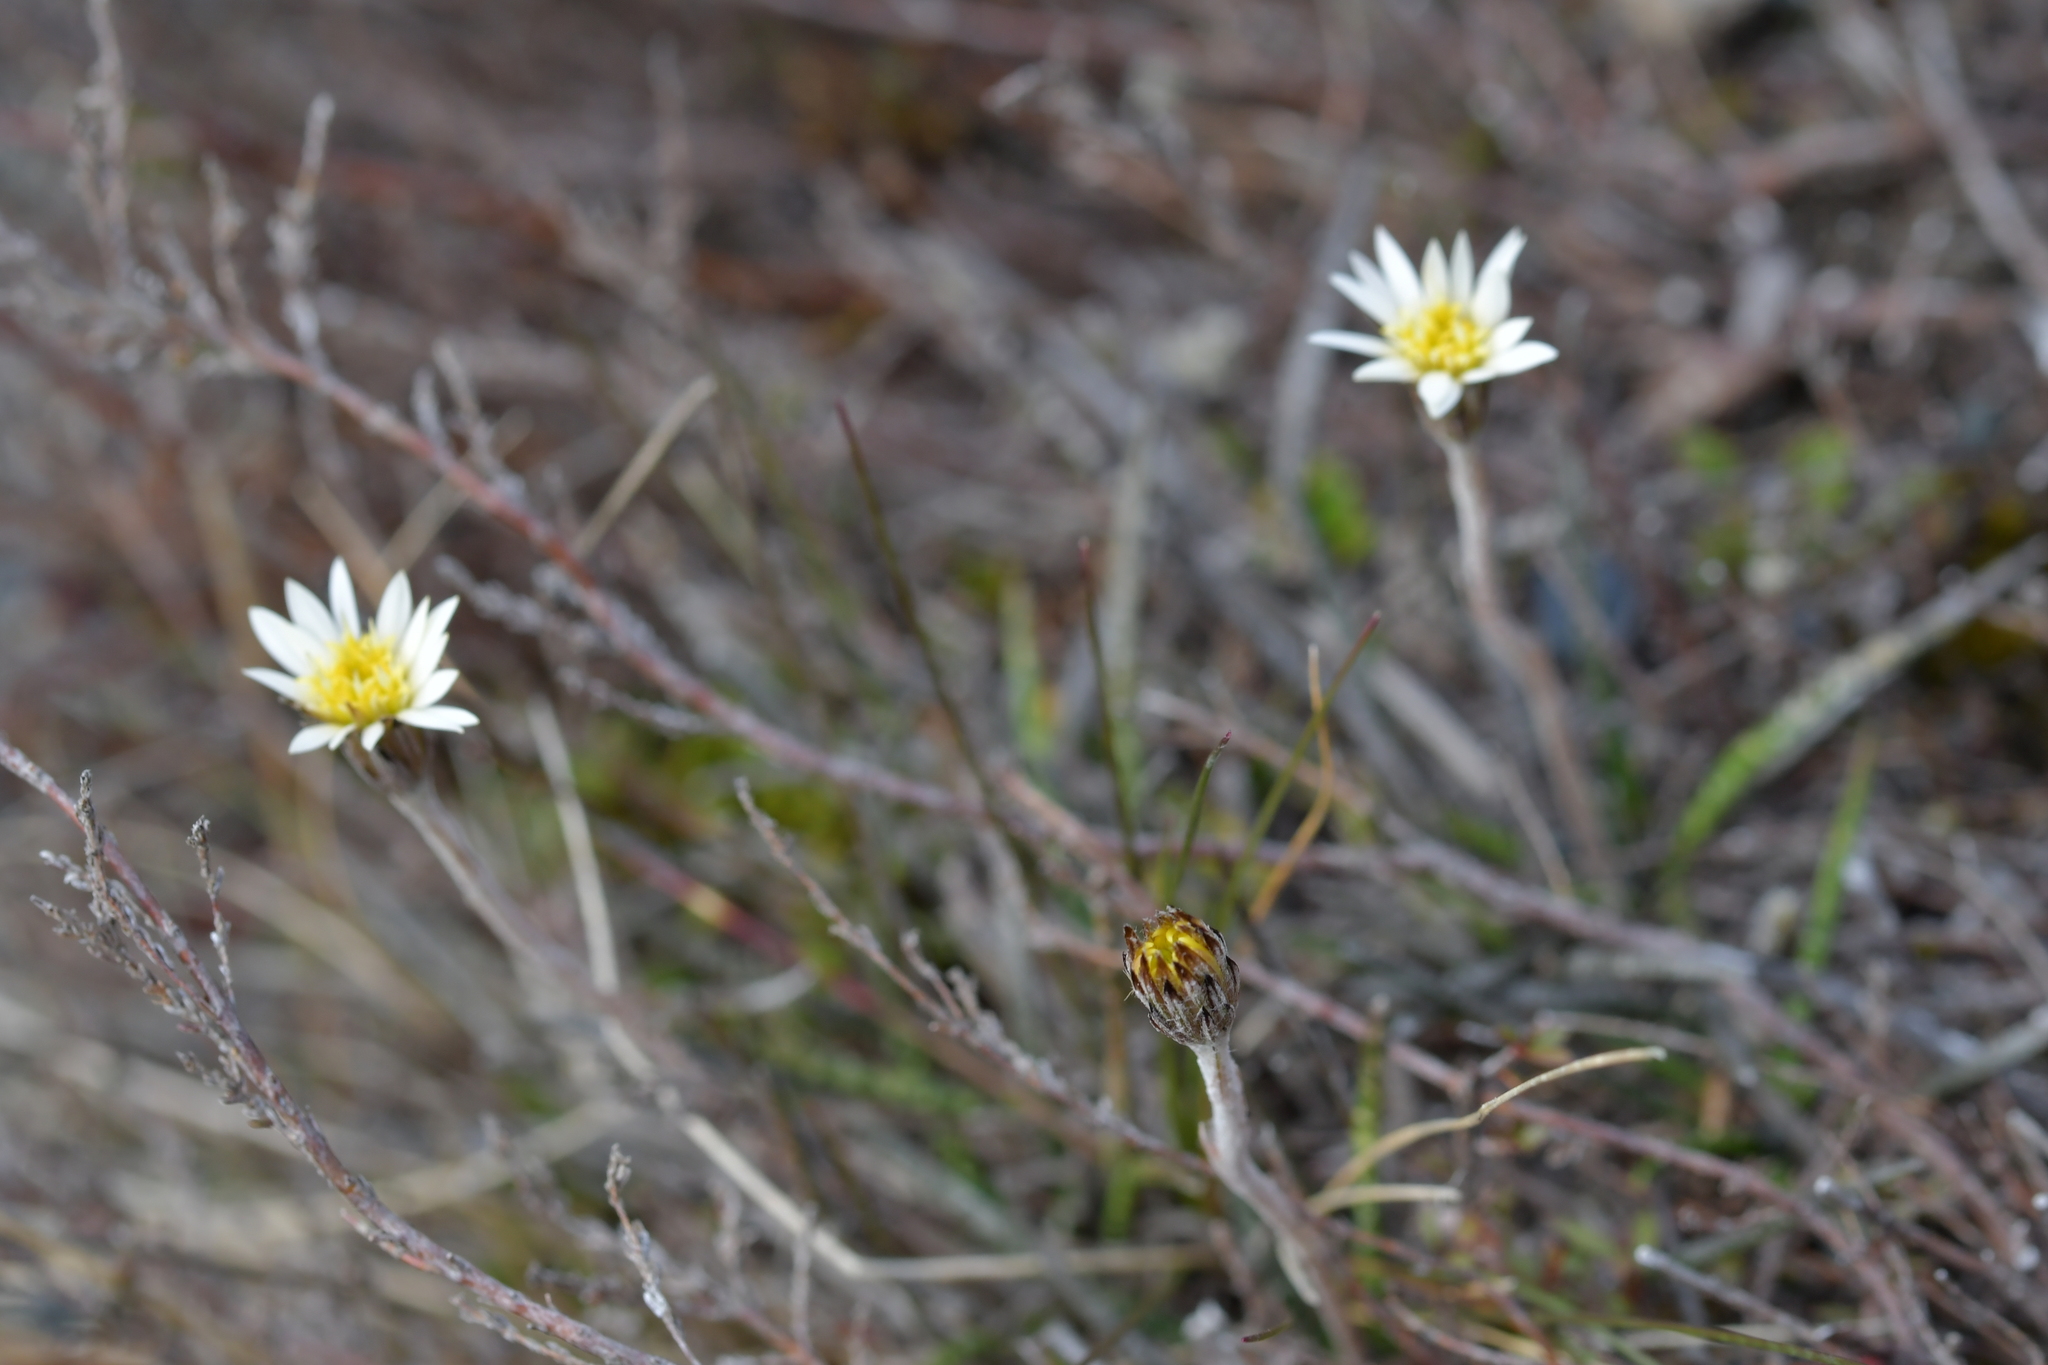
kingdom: Plantae
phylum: Tracheophyta
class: Magnoliopsida
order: Asterales
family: Asteraceae
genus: Celmisia
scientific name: Celmisia gracilenta
